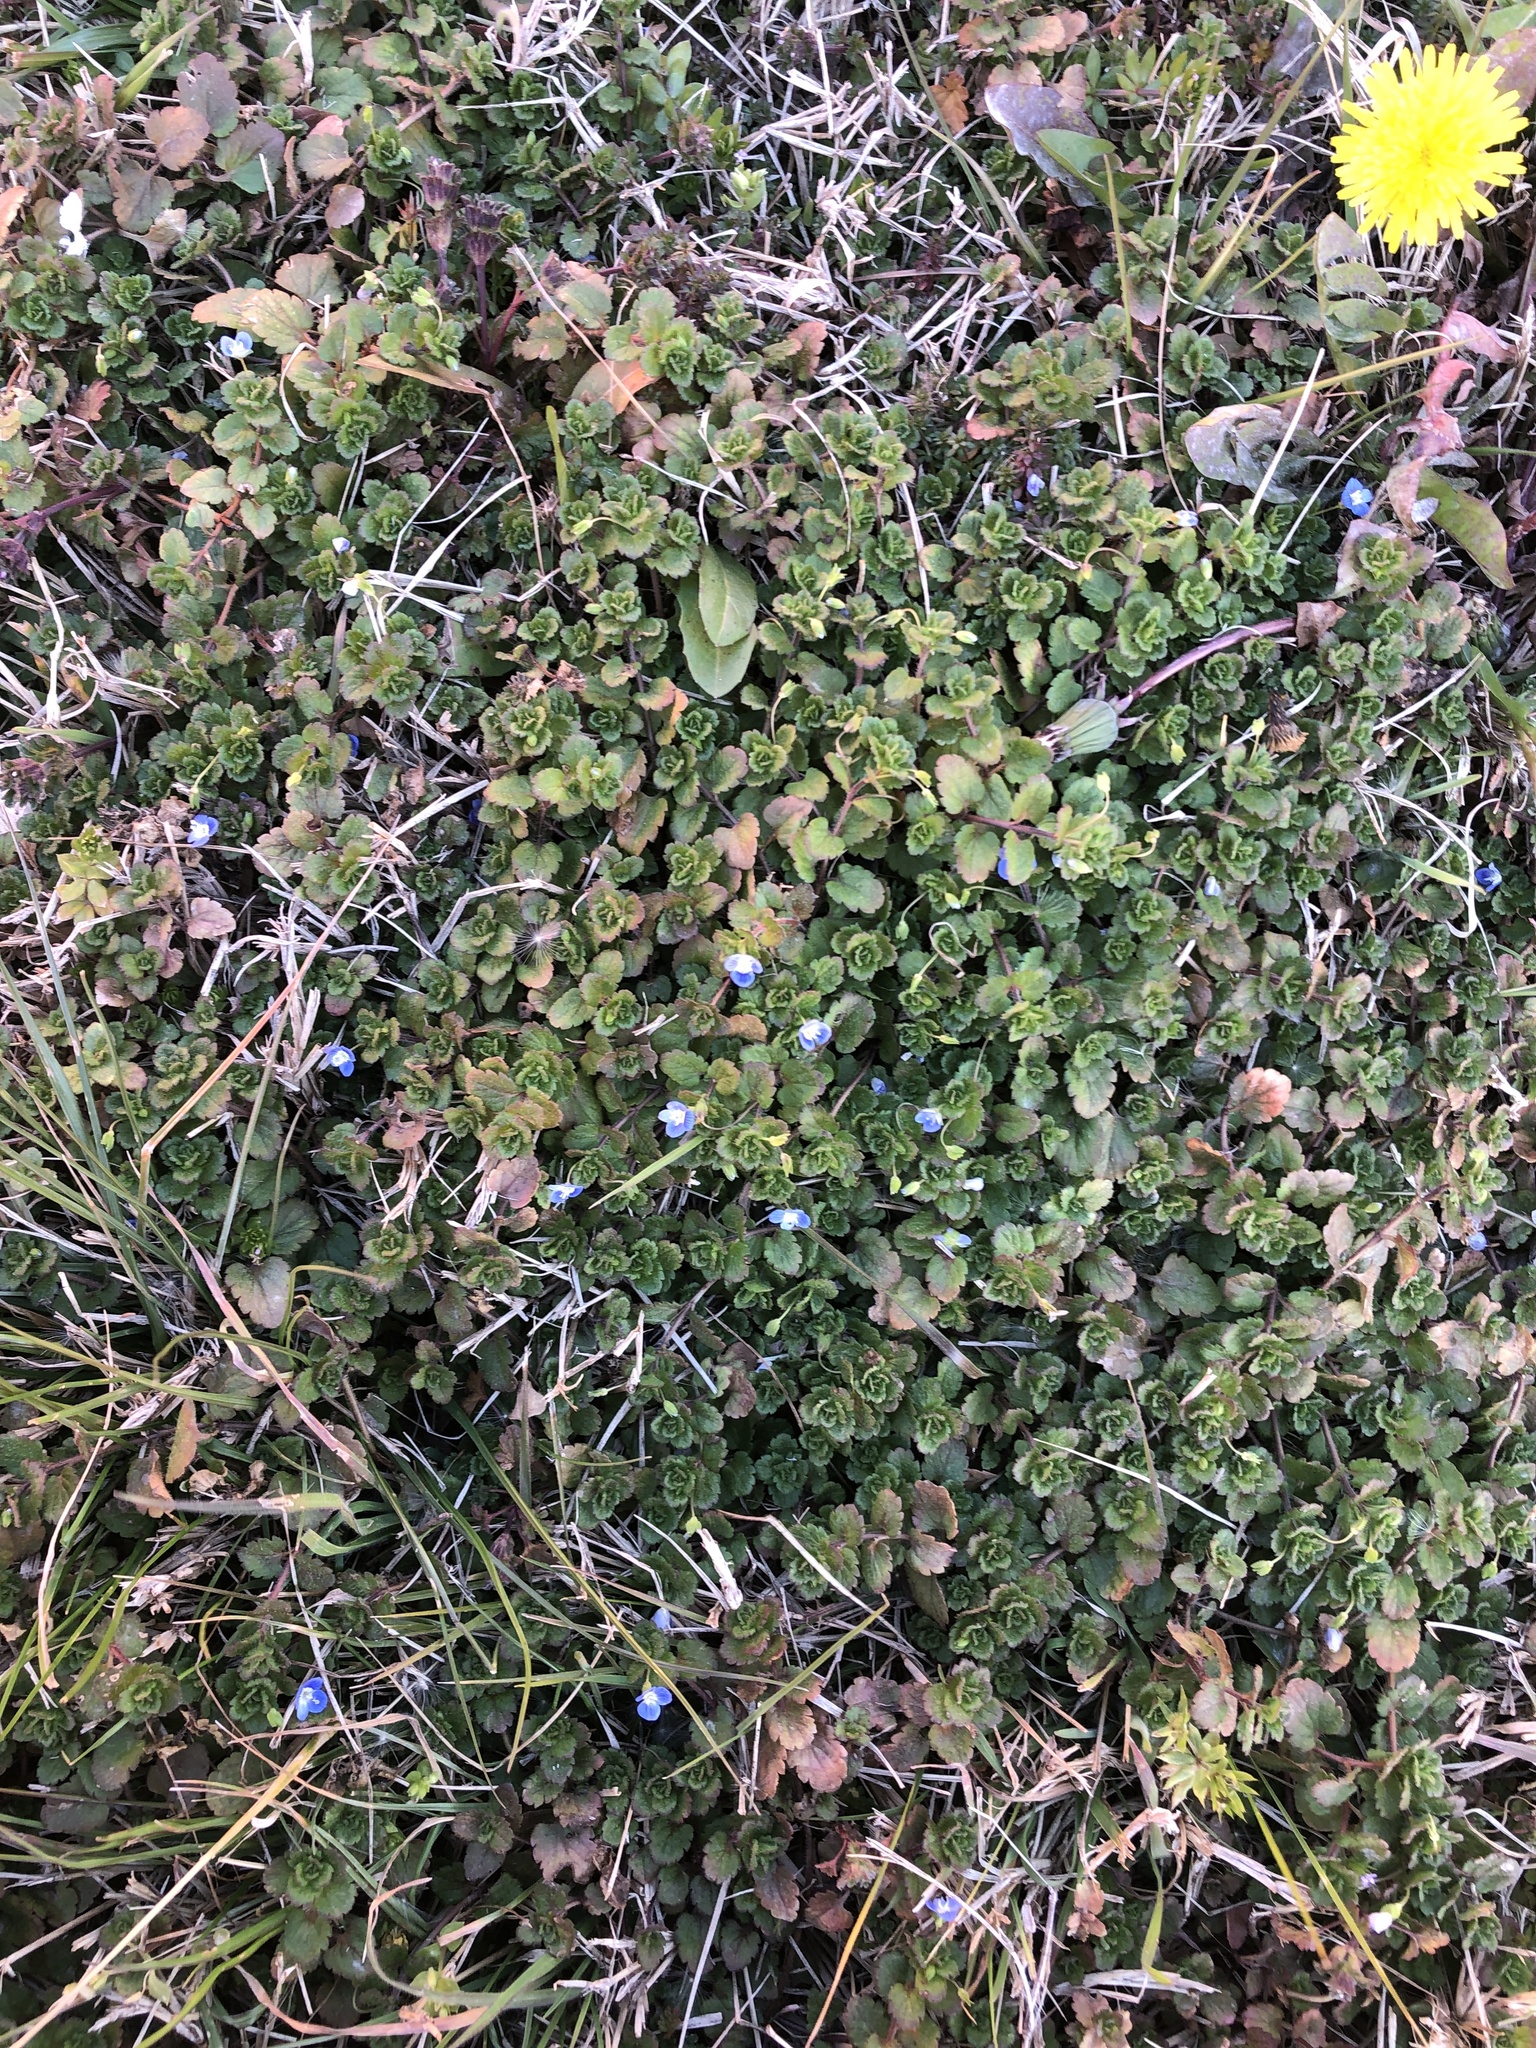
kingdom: Plantae
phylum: Tracheophyta
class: Magnoliopsida
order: Lamiales
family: Plantaginaceae
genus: Veronica
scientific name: Veronica persica
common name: Common field-speedwell
